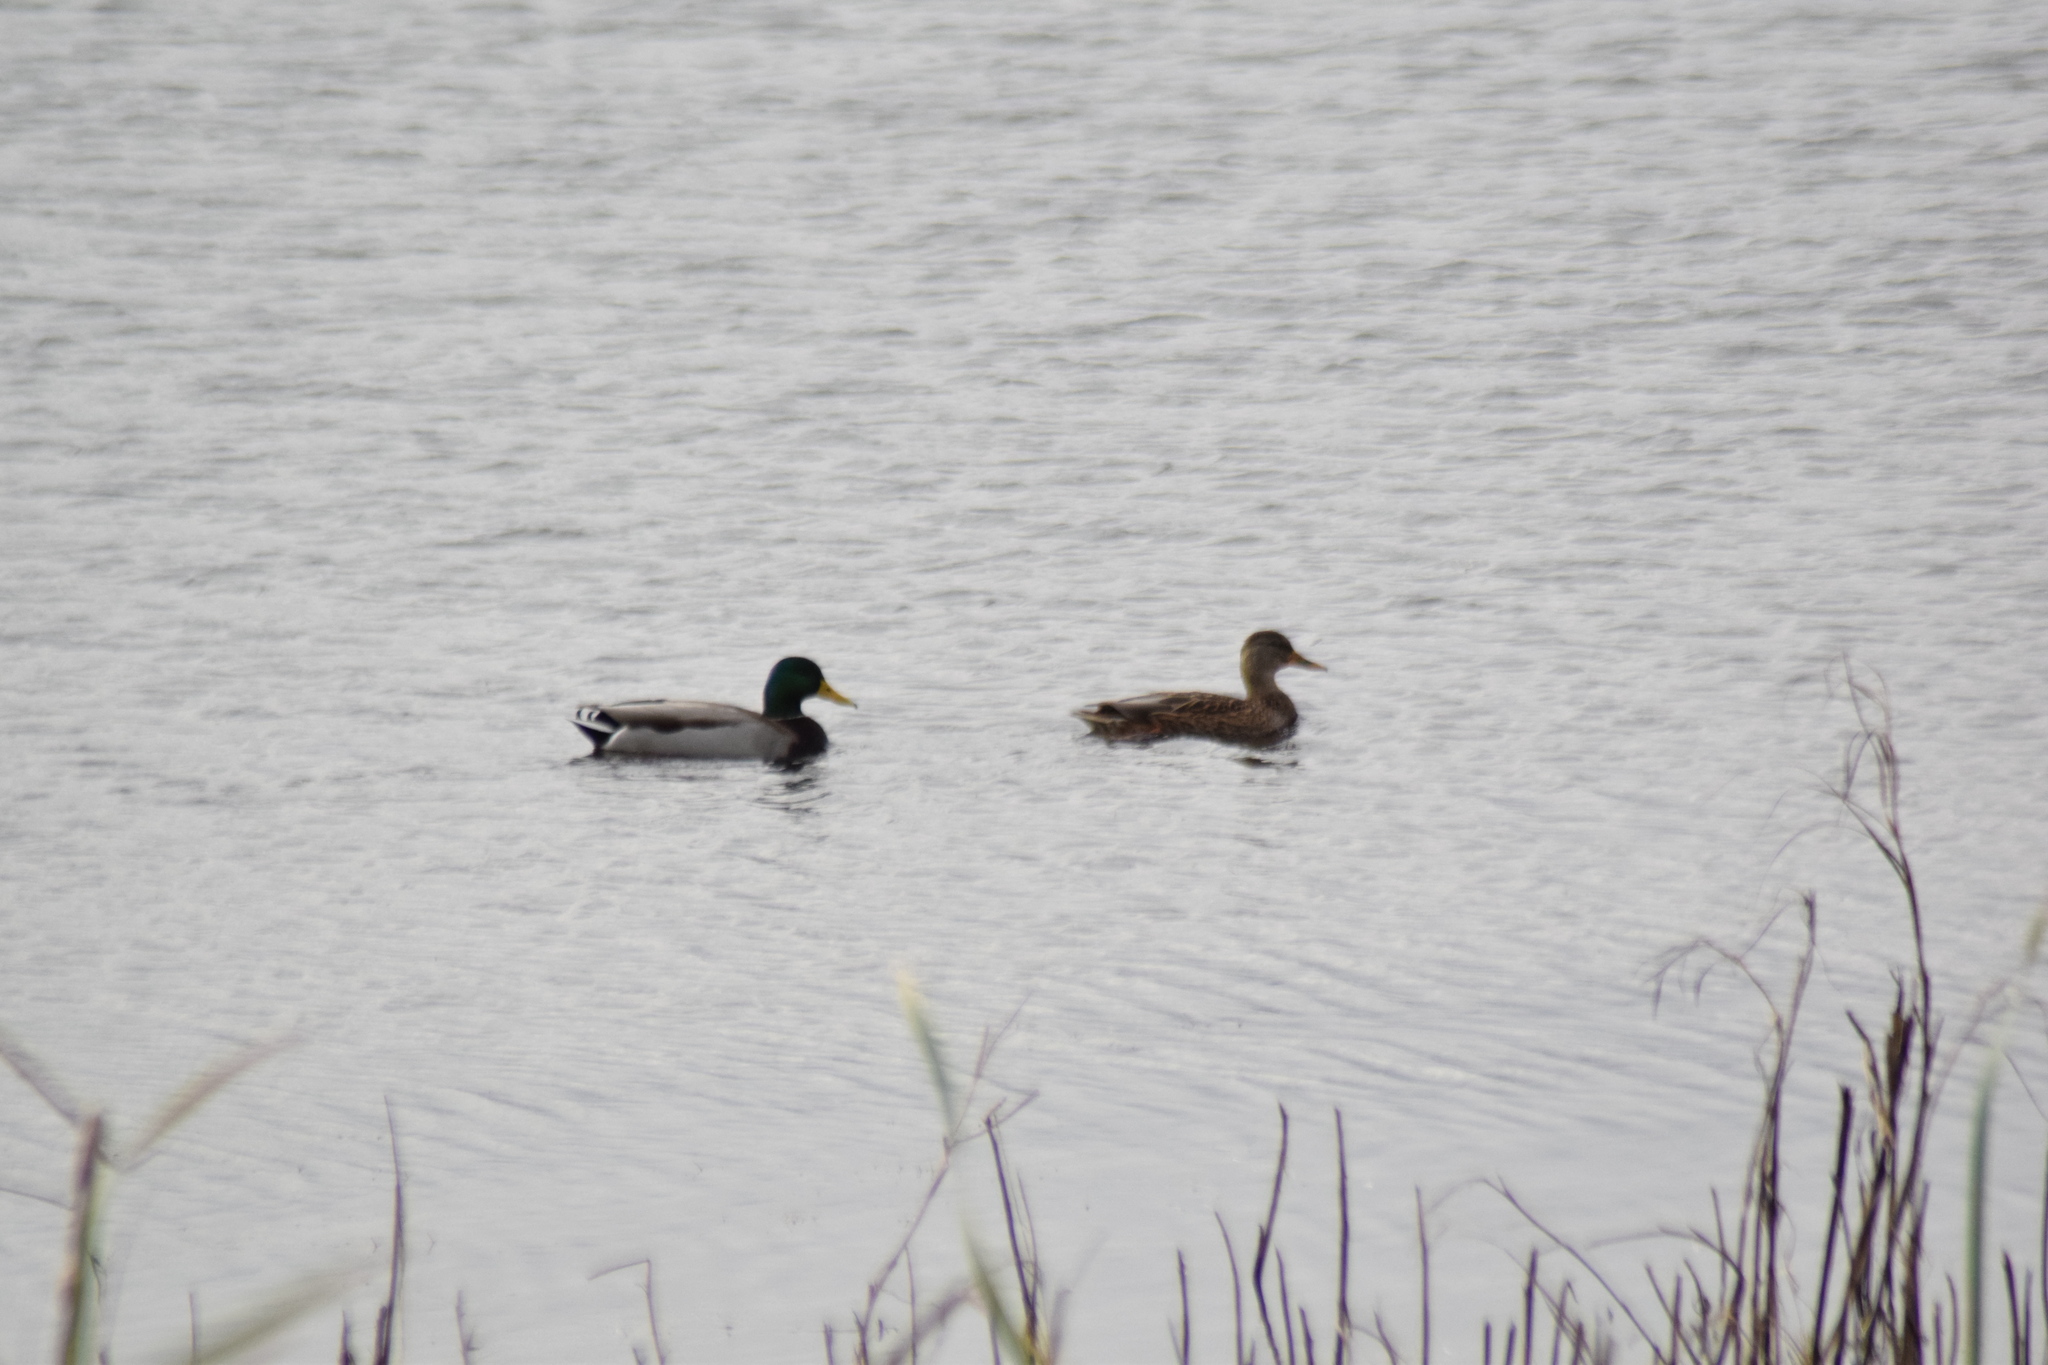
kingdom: Animalia
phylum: Chordata
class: Aves
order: Anseriformes
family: Anatidae
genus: Anas
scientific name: Anas platyrhynchos
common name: Mallard
